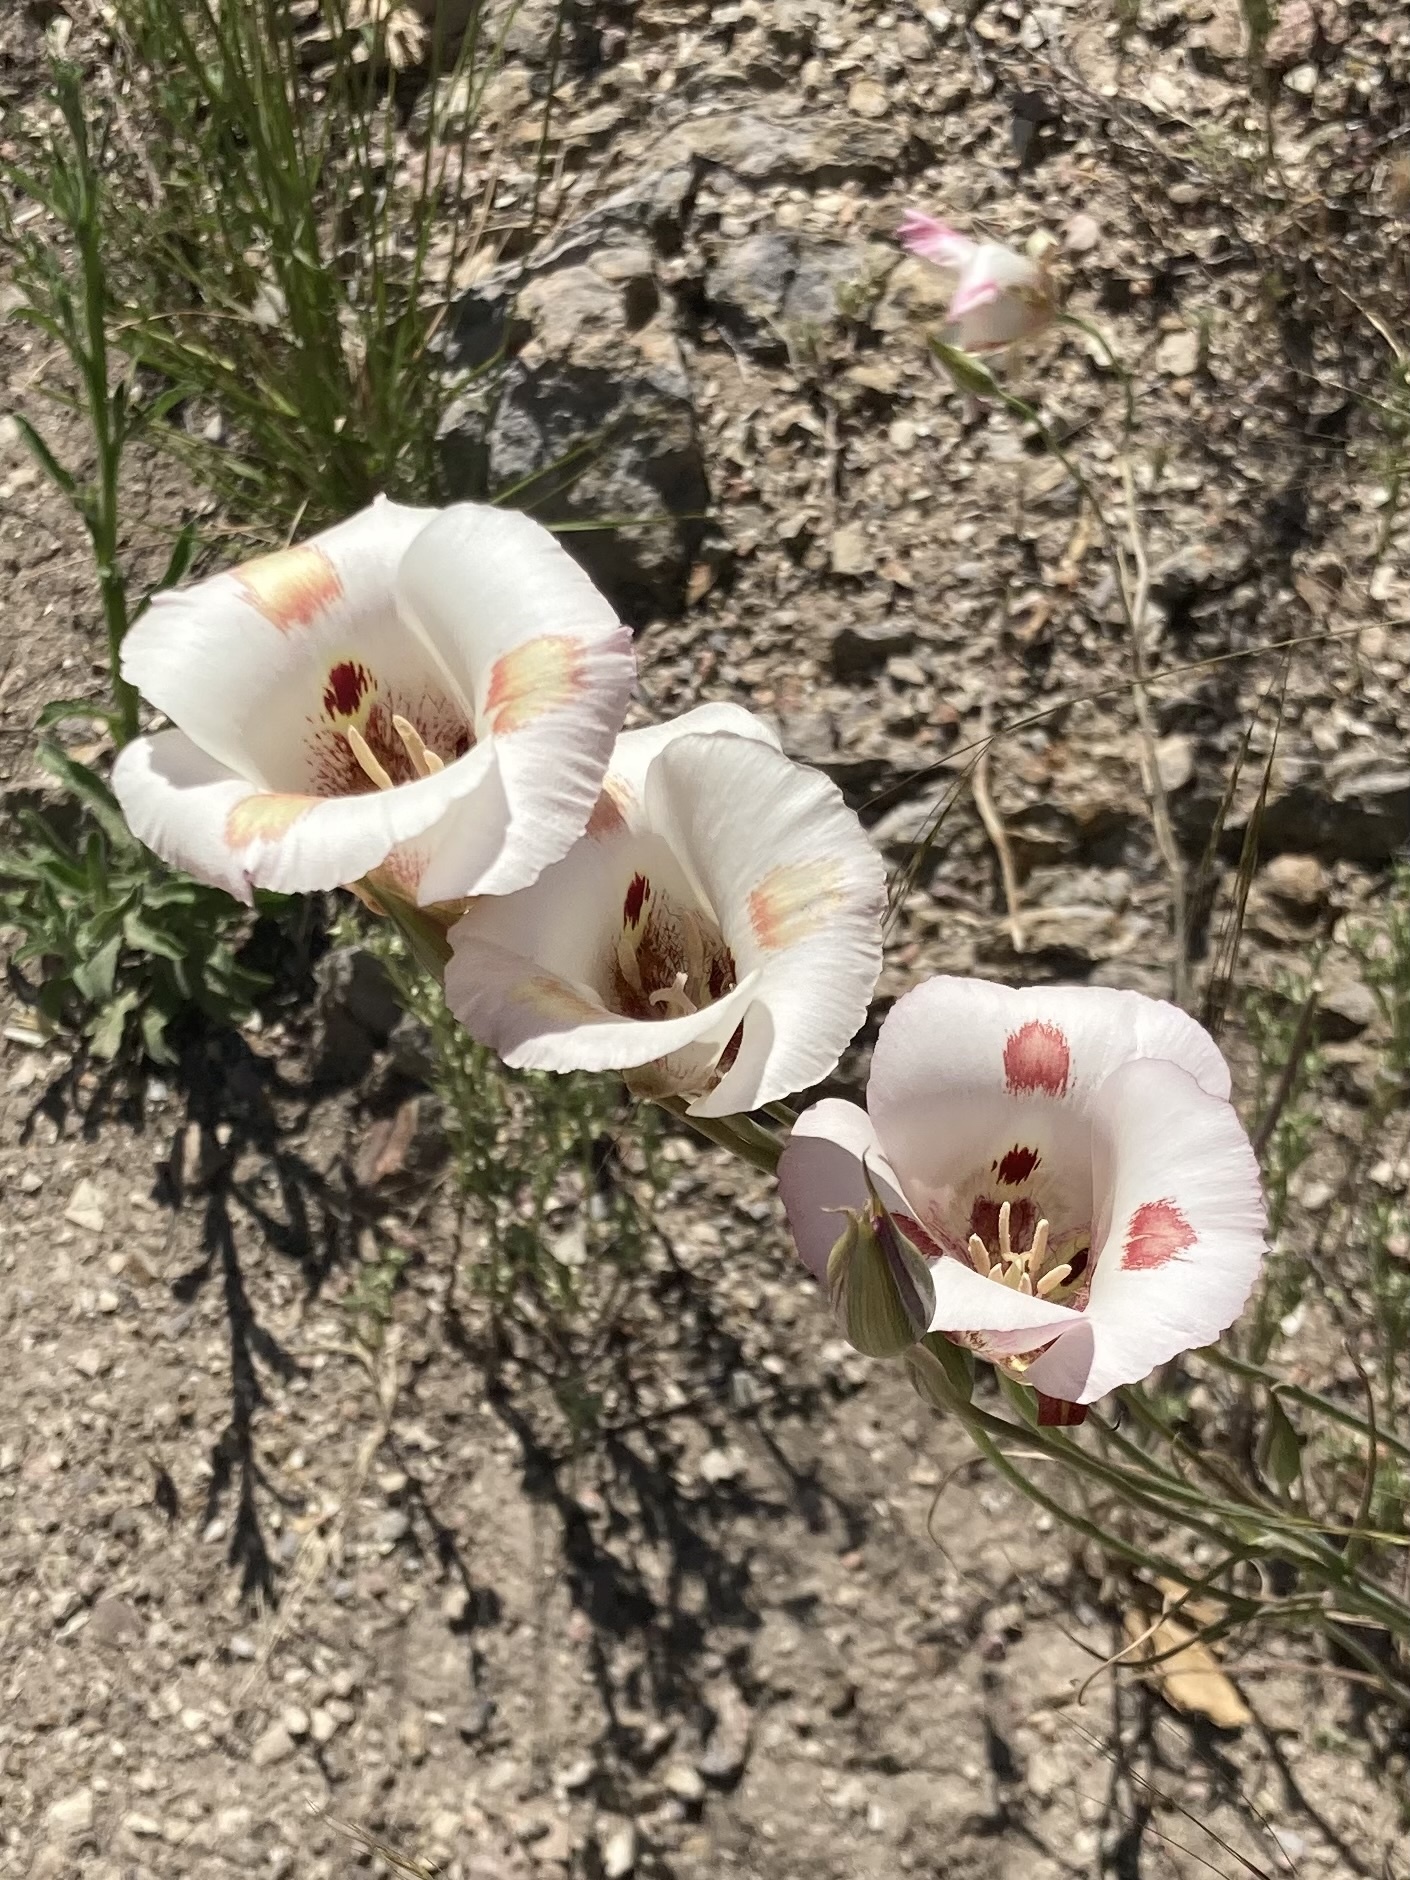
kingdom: Plantae
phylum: Tracheophyta
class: Liliopsida
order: Liliales
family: Liliaceae
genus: Calochortus
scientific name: Calochortus venustus
